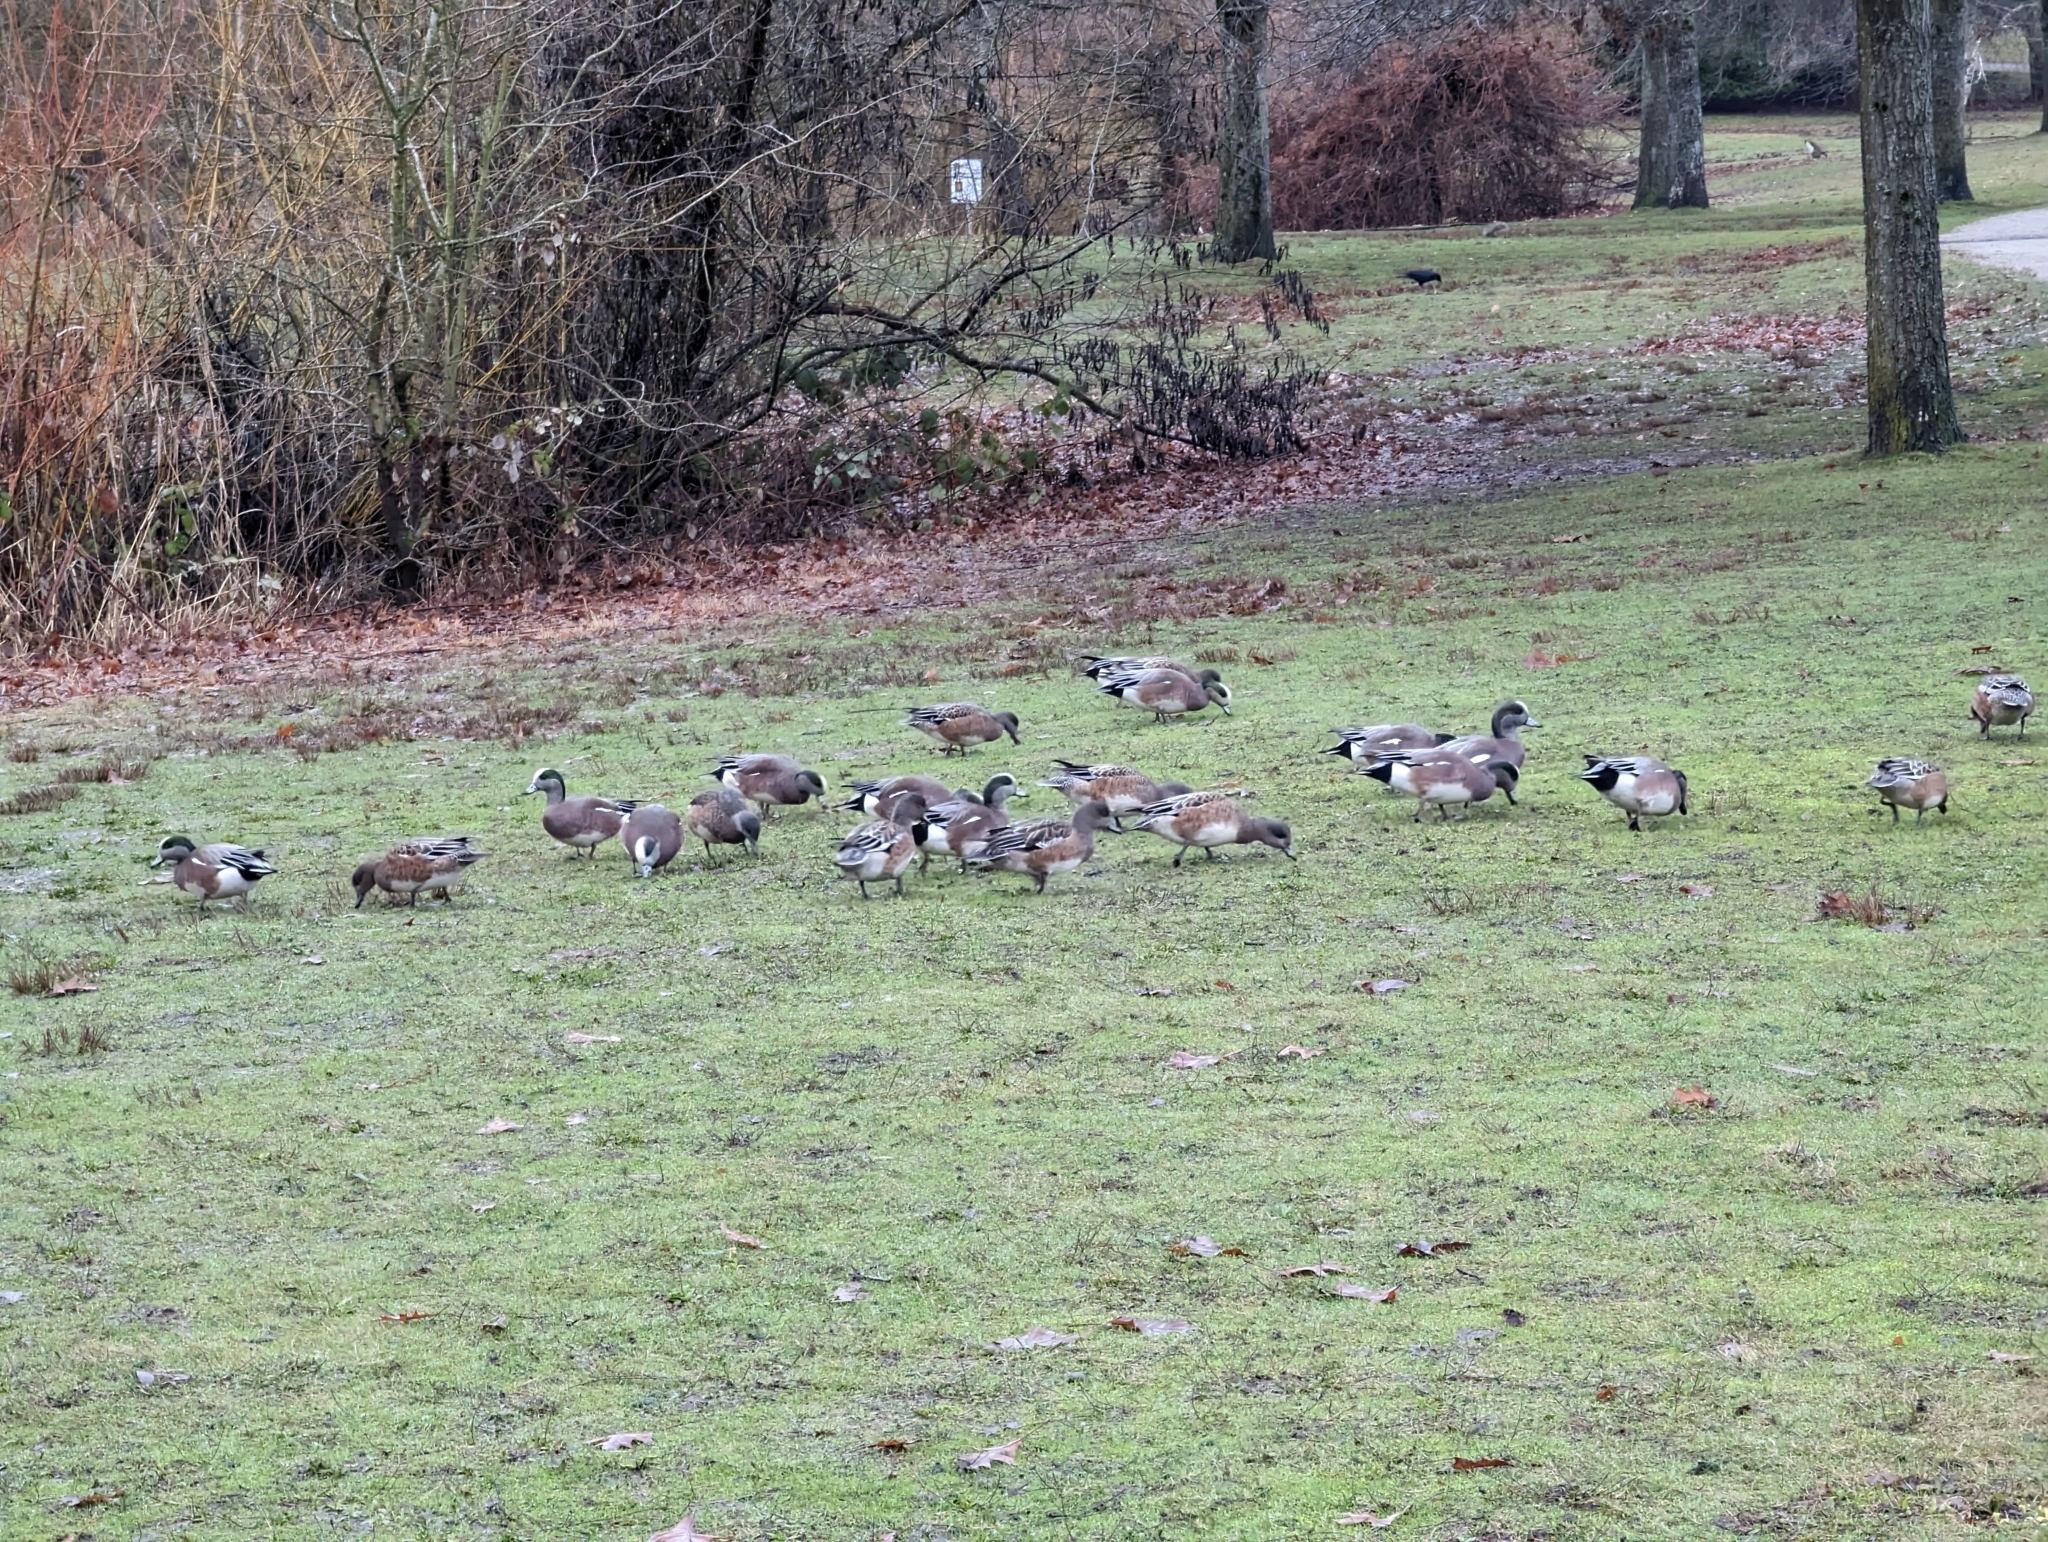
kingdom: Animalia
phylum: Chordata
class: Aves
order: Anseriformes
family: Anatidae
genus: Mareca
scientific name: Mareca americana
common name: American wigeon
